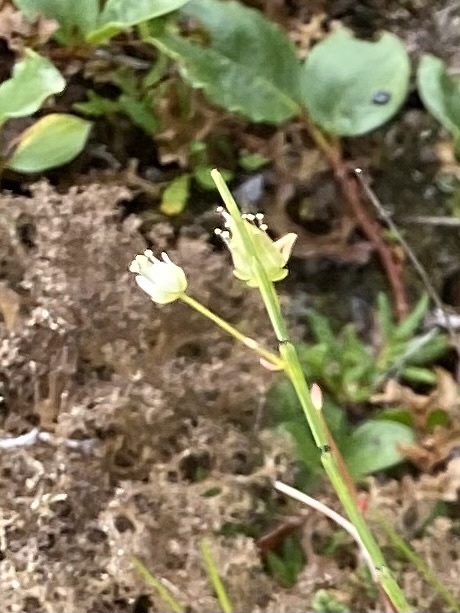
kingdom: Plantae
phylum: Tracheophyta
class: Magnoliopsida
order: Saxifragales
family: Saxifragaceae
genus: Saxifraga
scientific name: Saxifraga
